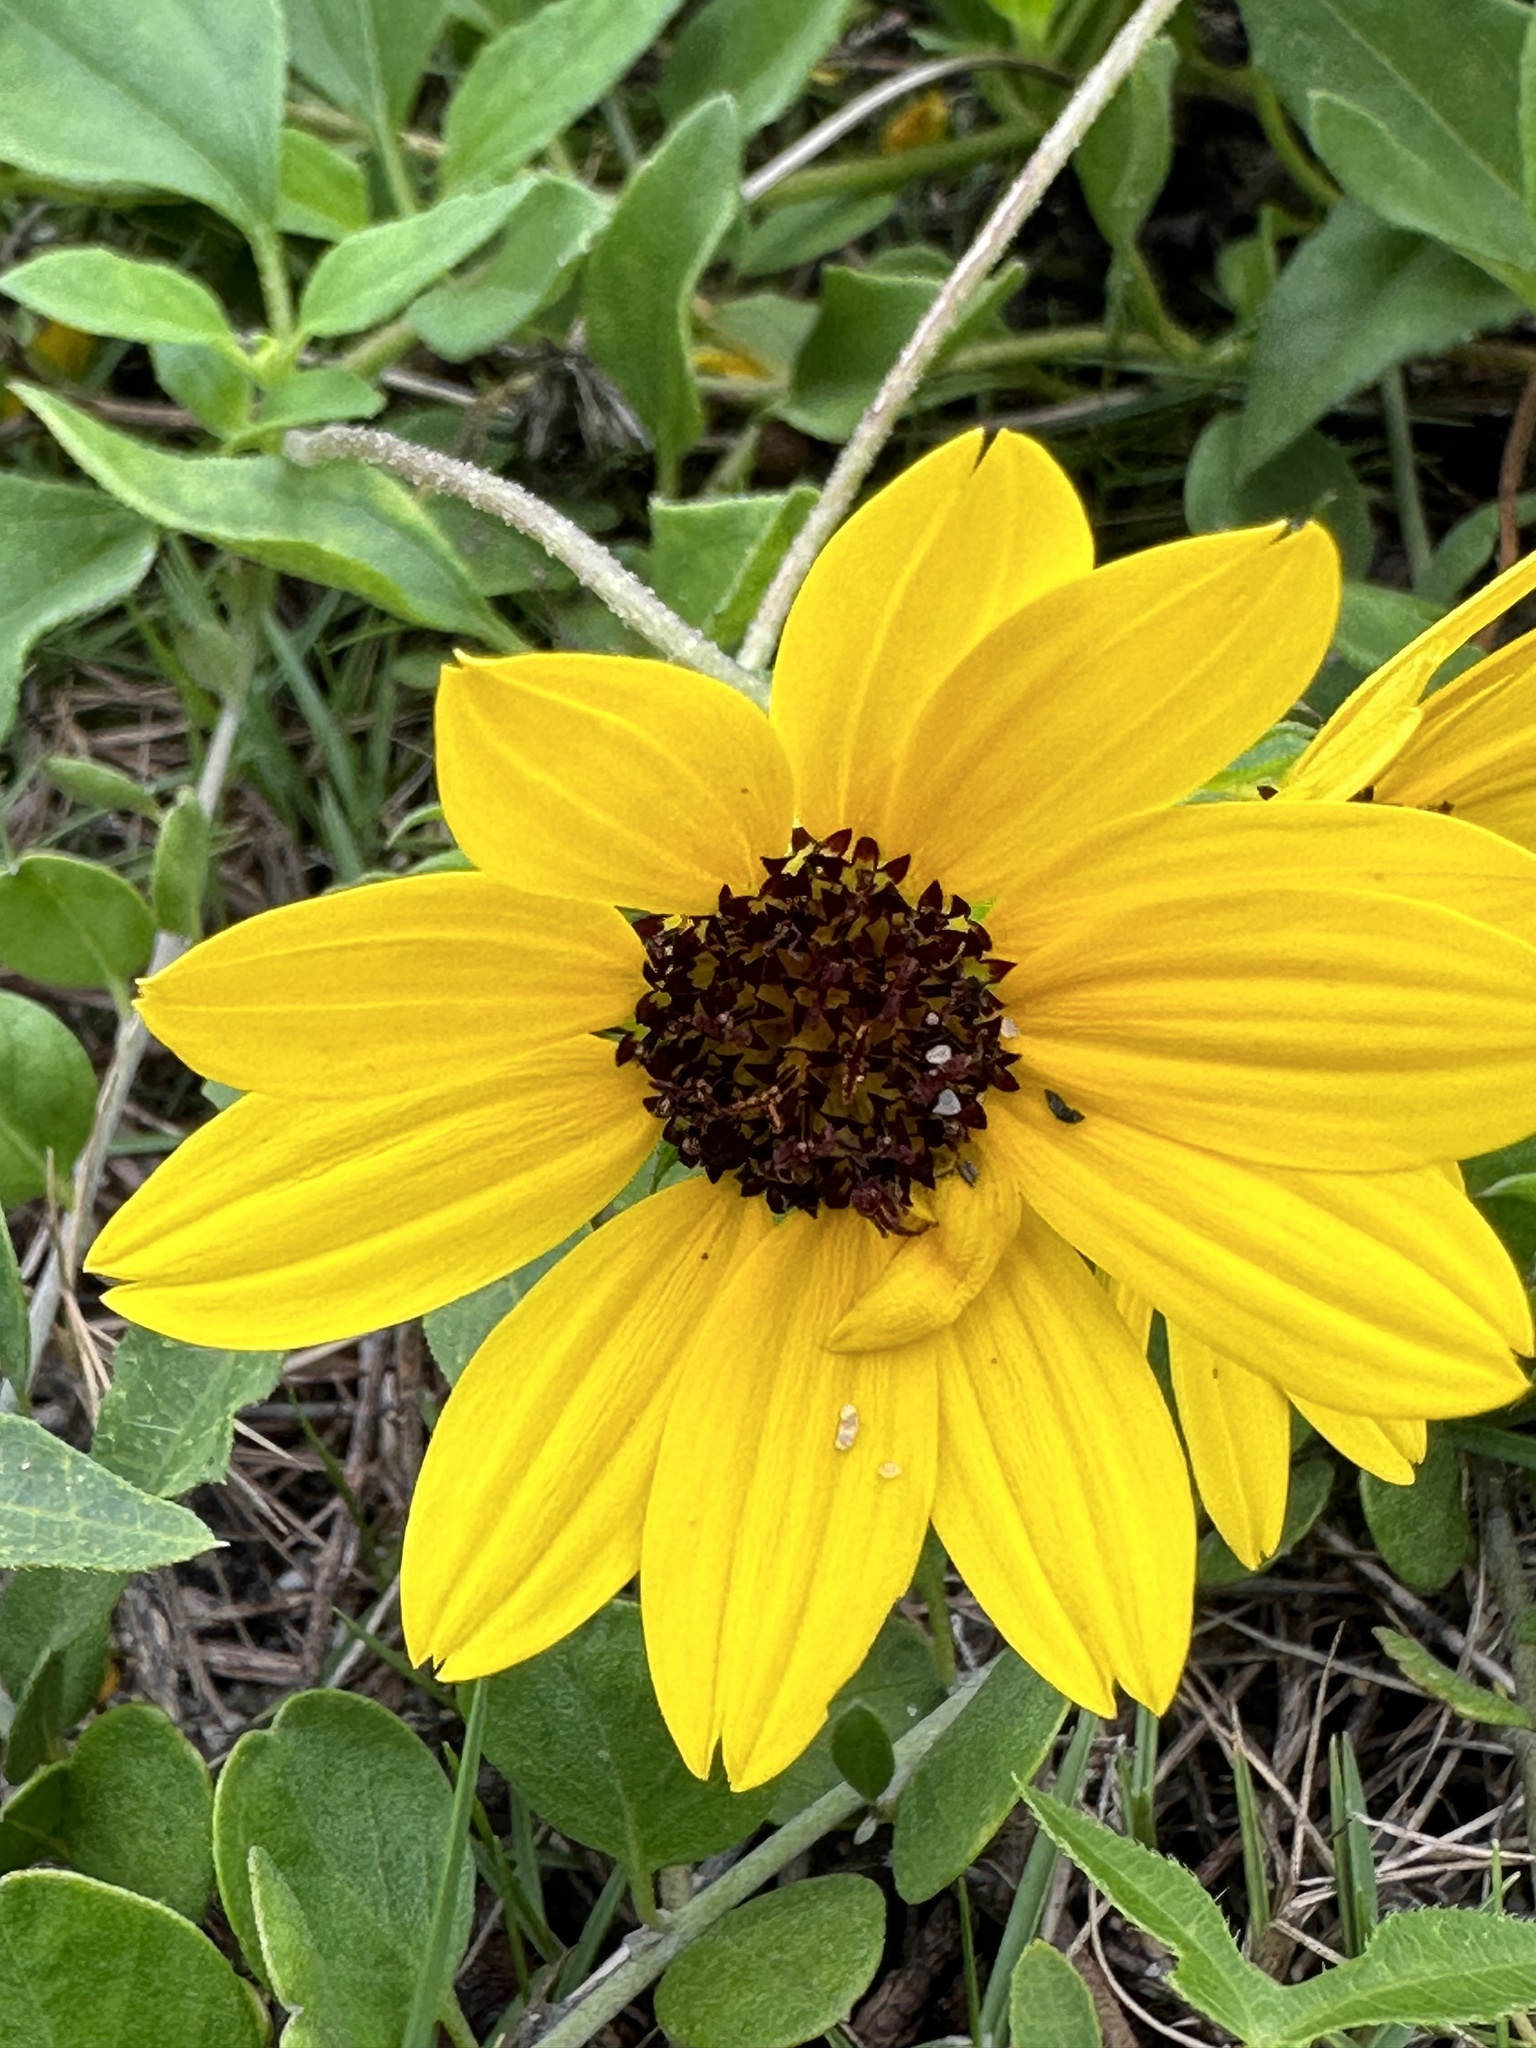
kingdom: Plantae
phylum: Tracheophyta
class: Magnoliopsida
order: Asterales
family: Asteraceae
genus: Helianthus
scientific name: Helianthus debilis
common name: Weak sunflower
